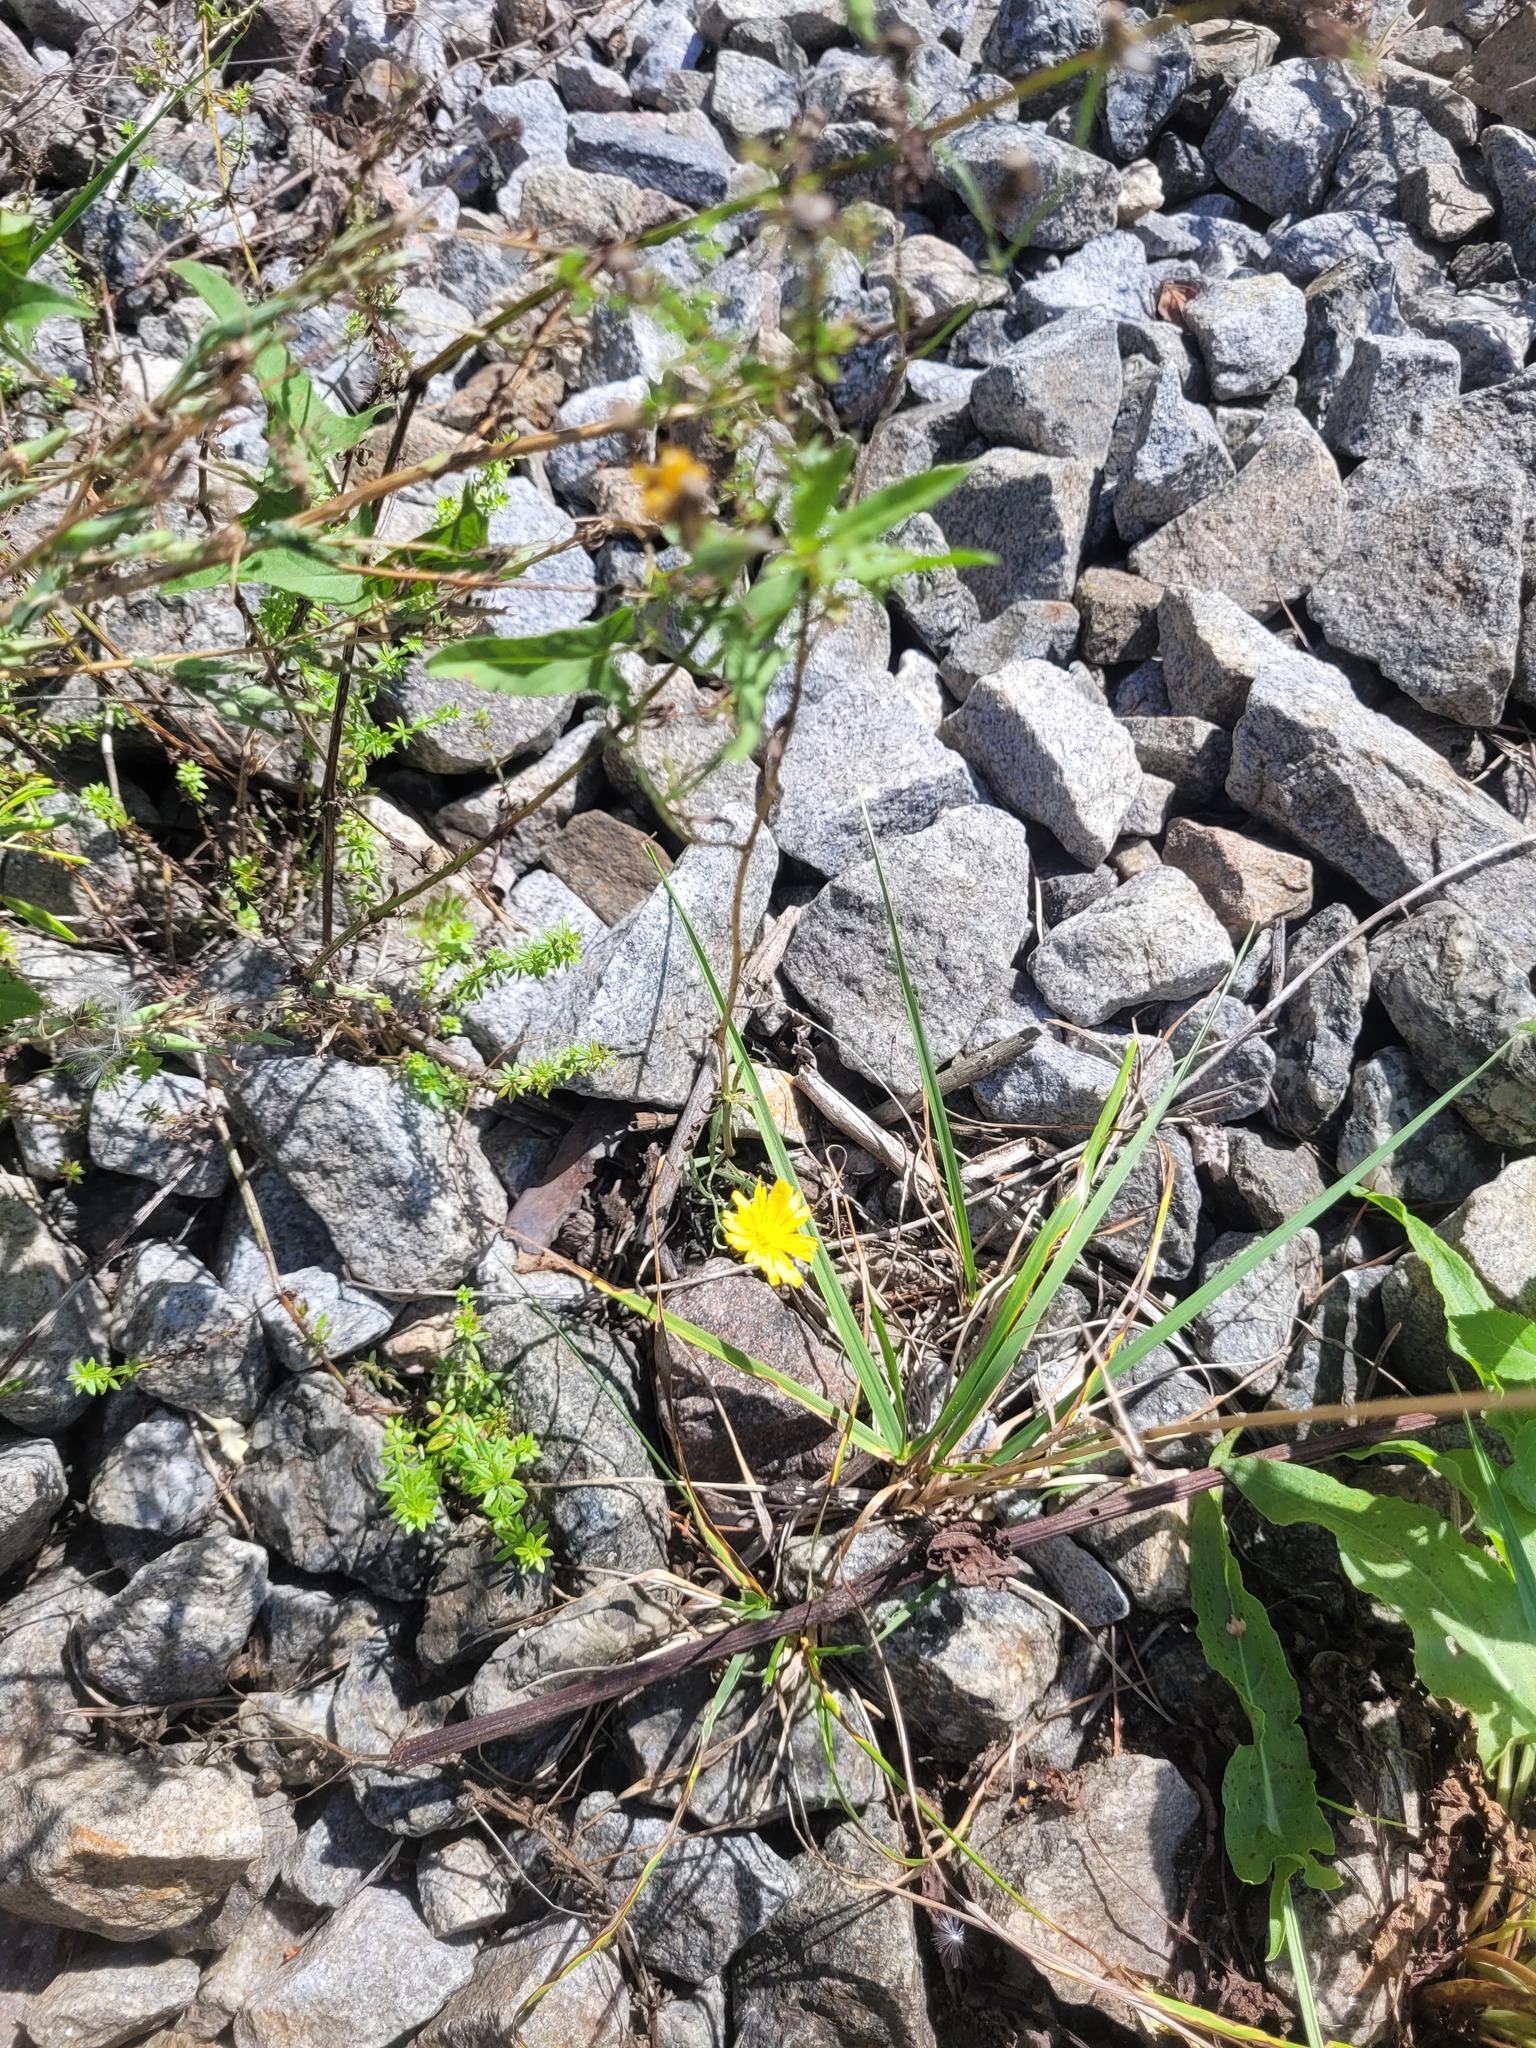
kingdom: Plantae
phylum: Tracheophyta
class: Magnoliopsida
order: Asterales
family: Asteraceae
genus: Crepis
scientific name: Crepis tectorum
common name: Narrow-leaved hawk's-beard
